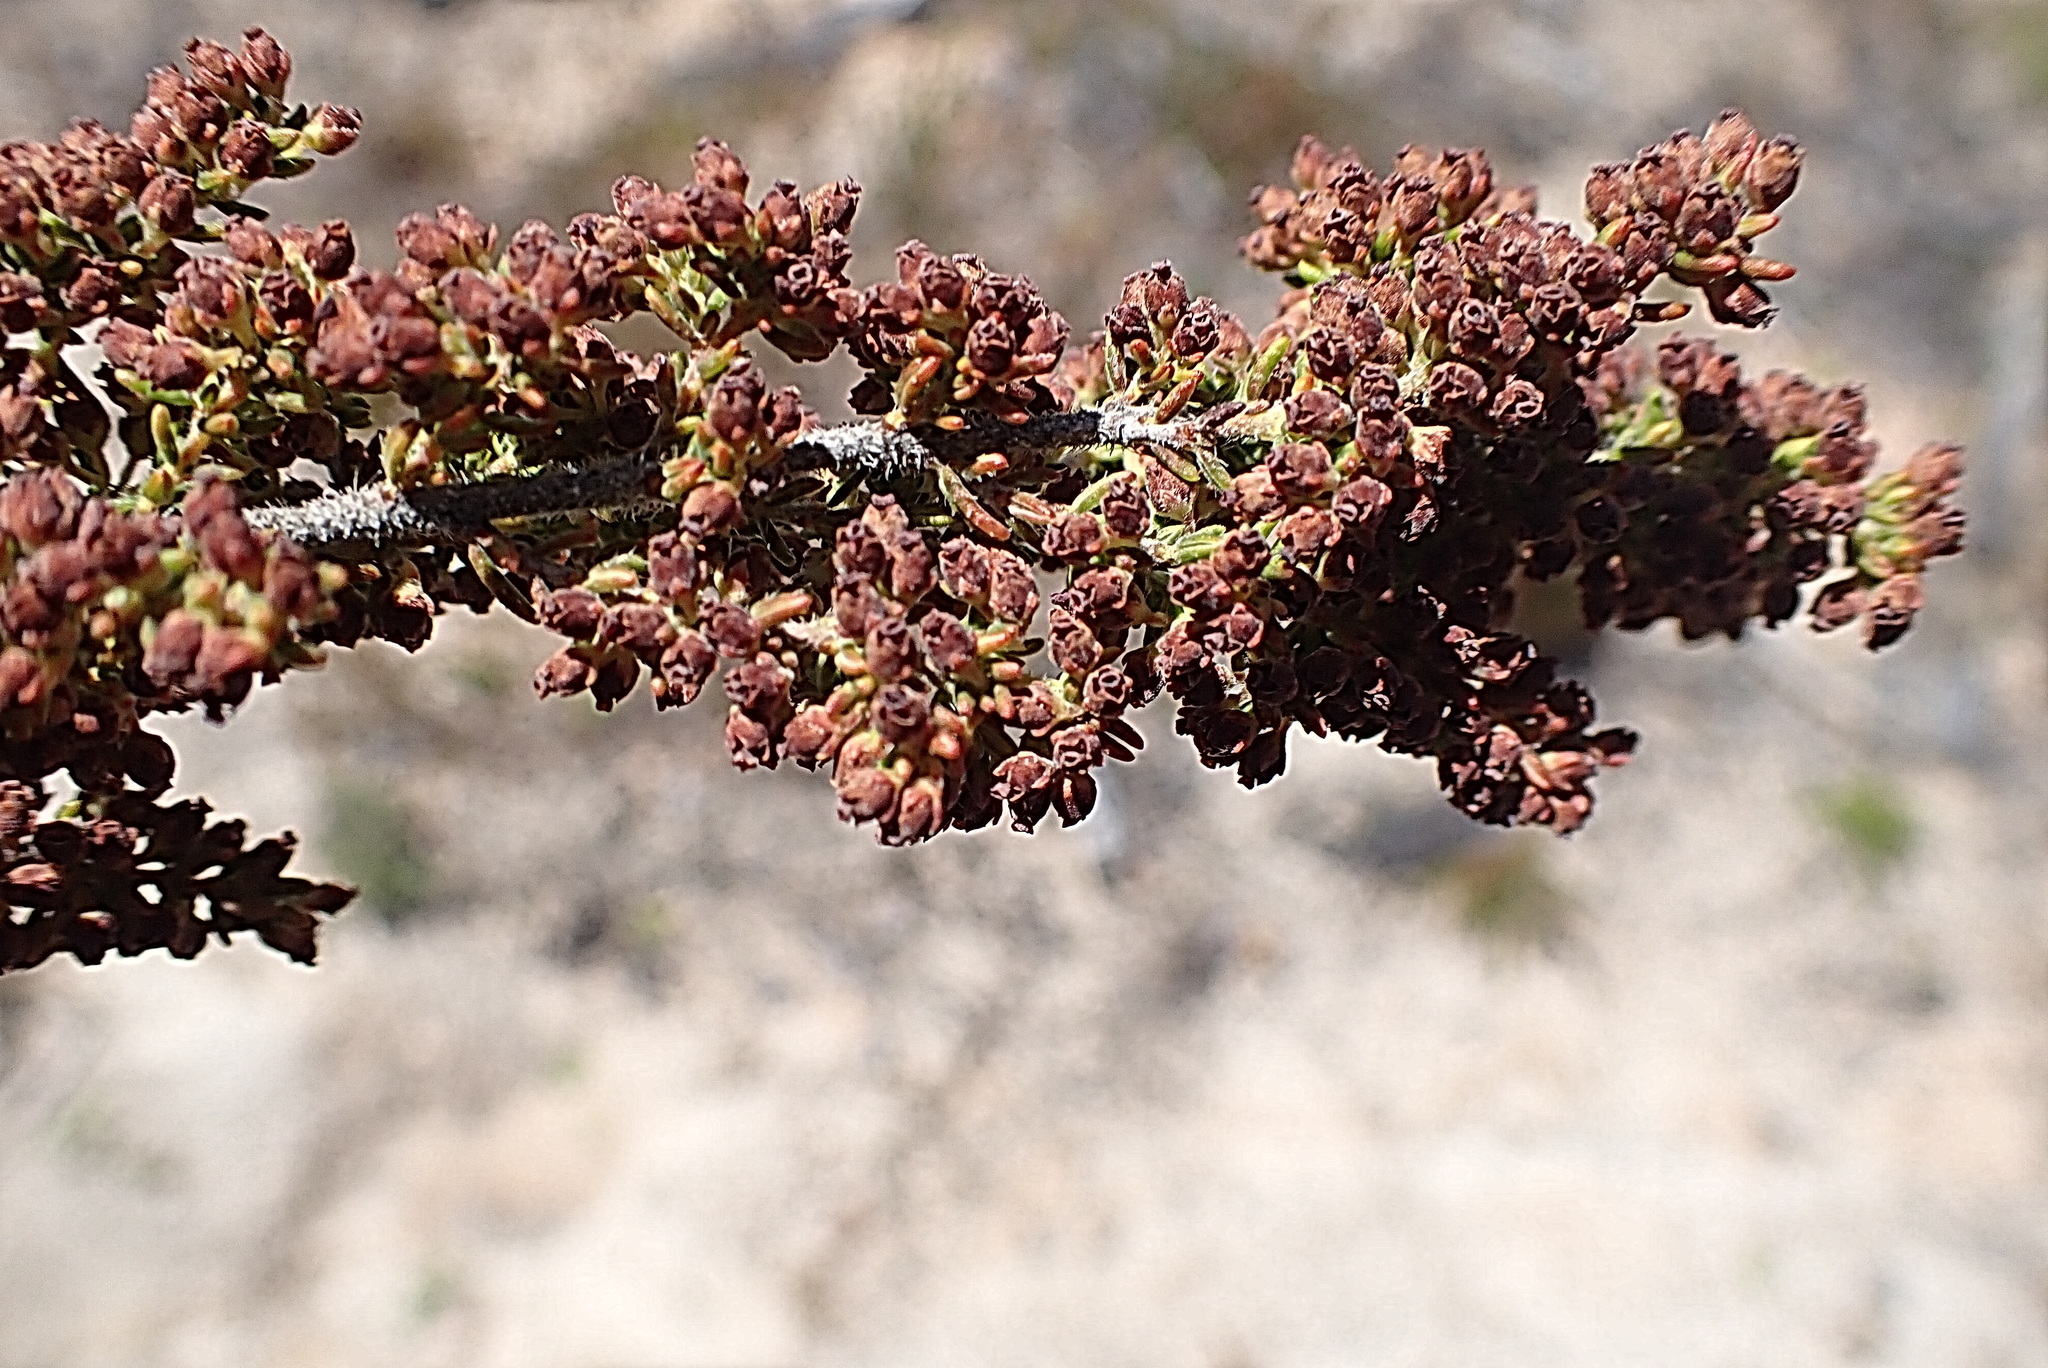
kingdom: Plantae
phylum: Tracheophyta
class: Magnoliopsida
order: Ericales
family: Ericaceae
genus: Erica
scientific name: Erica leucopelta
